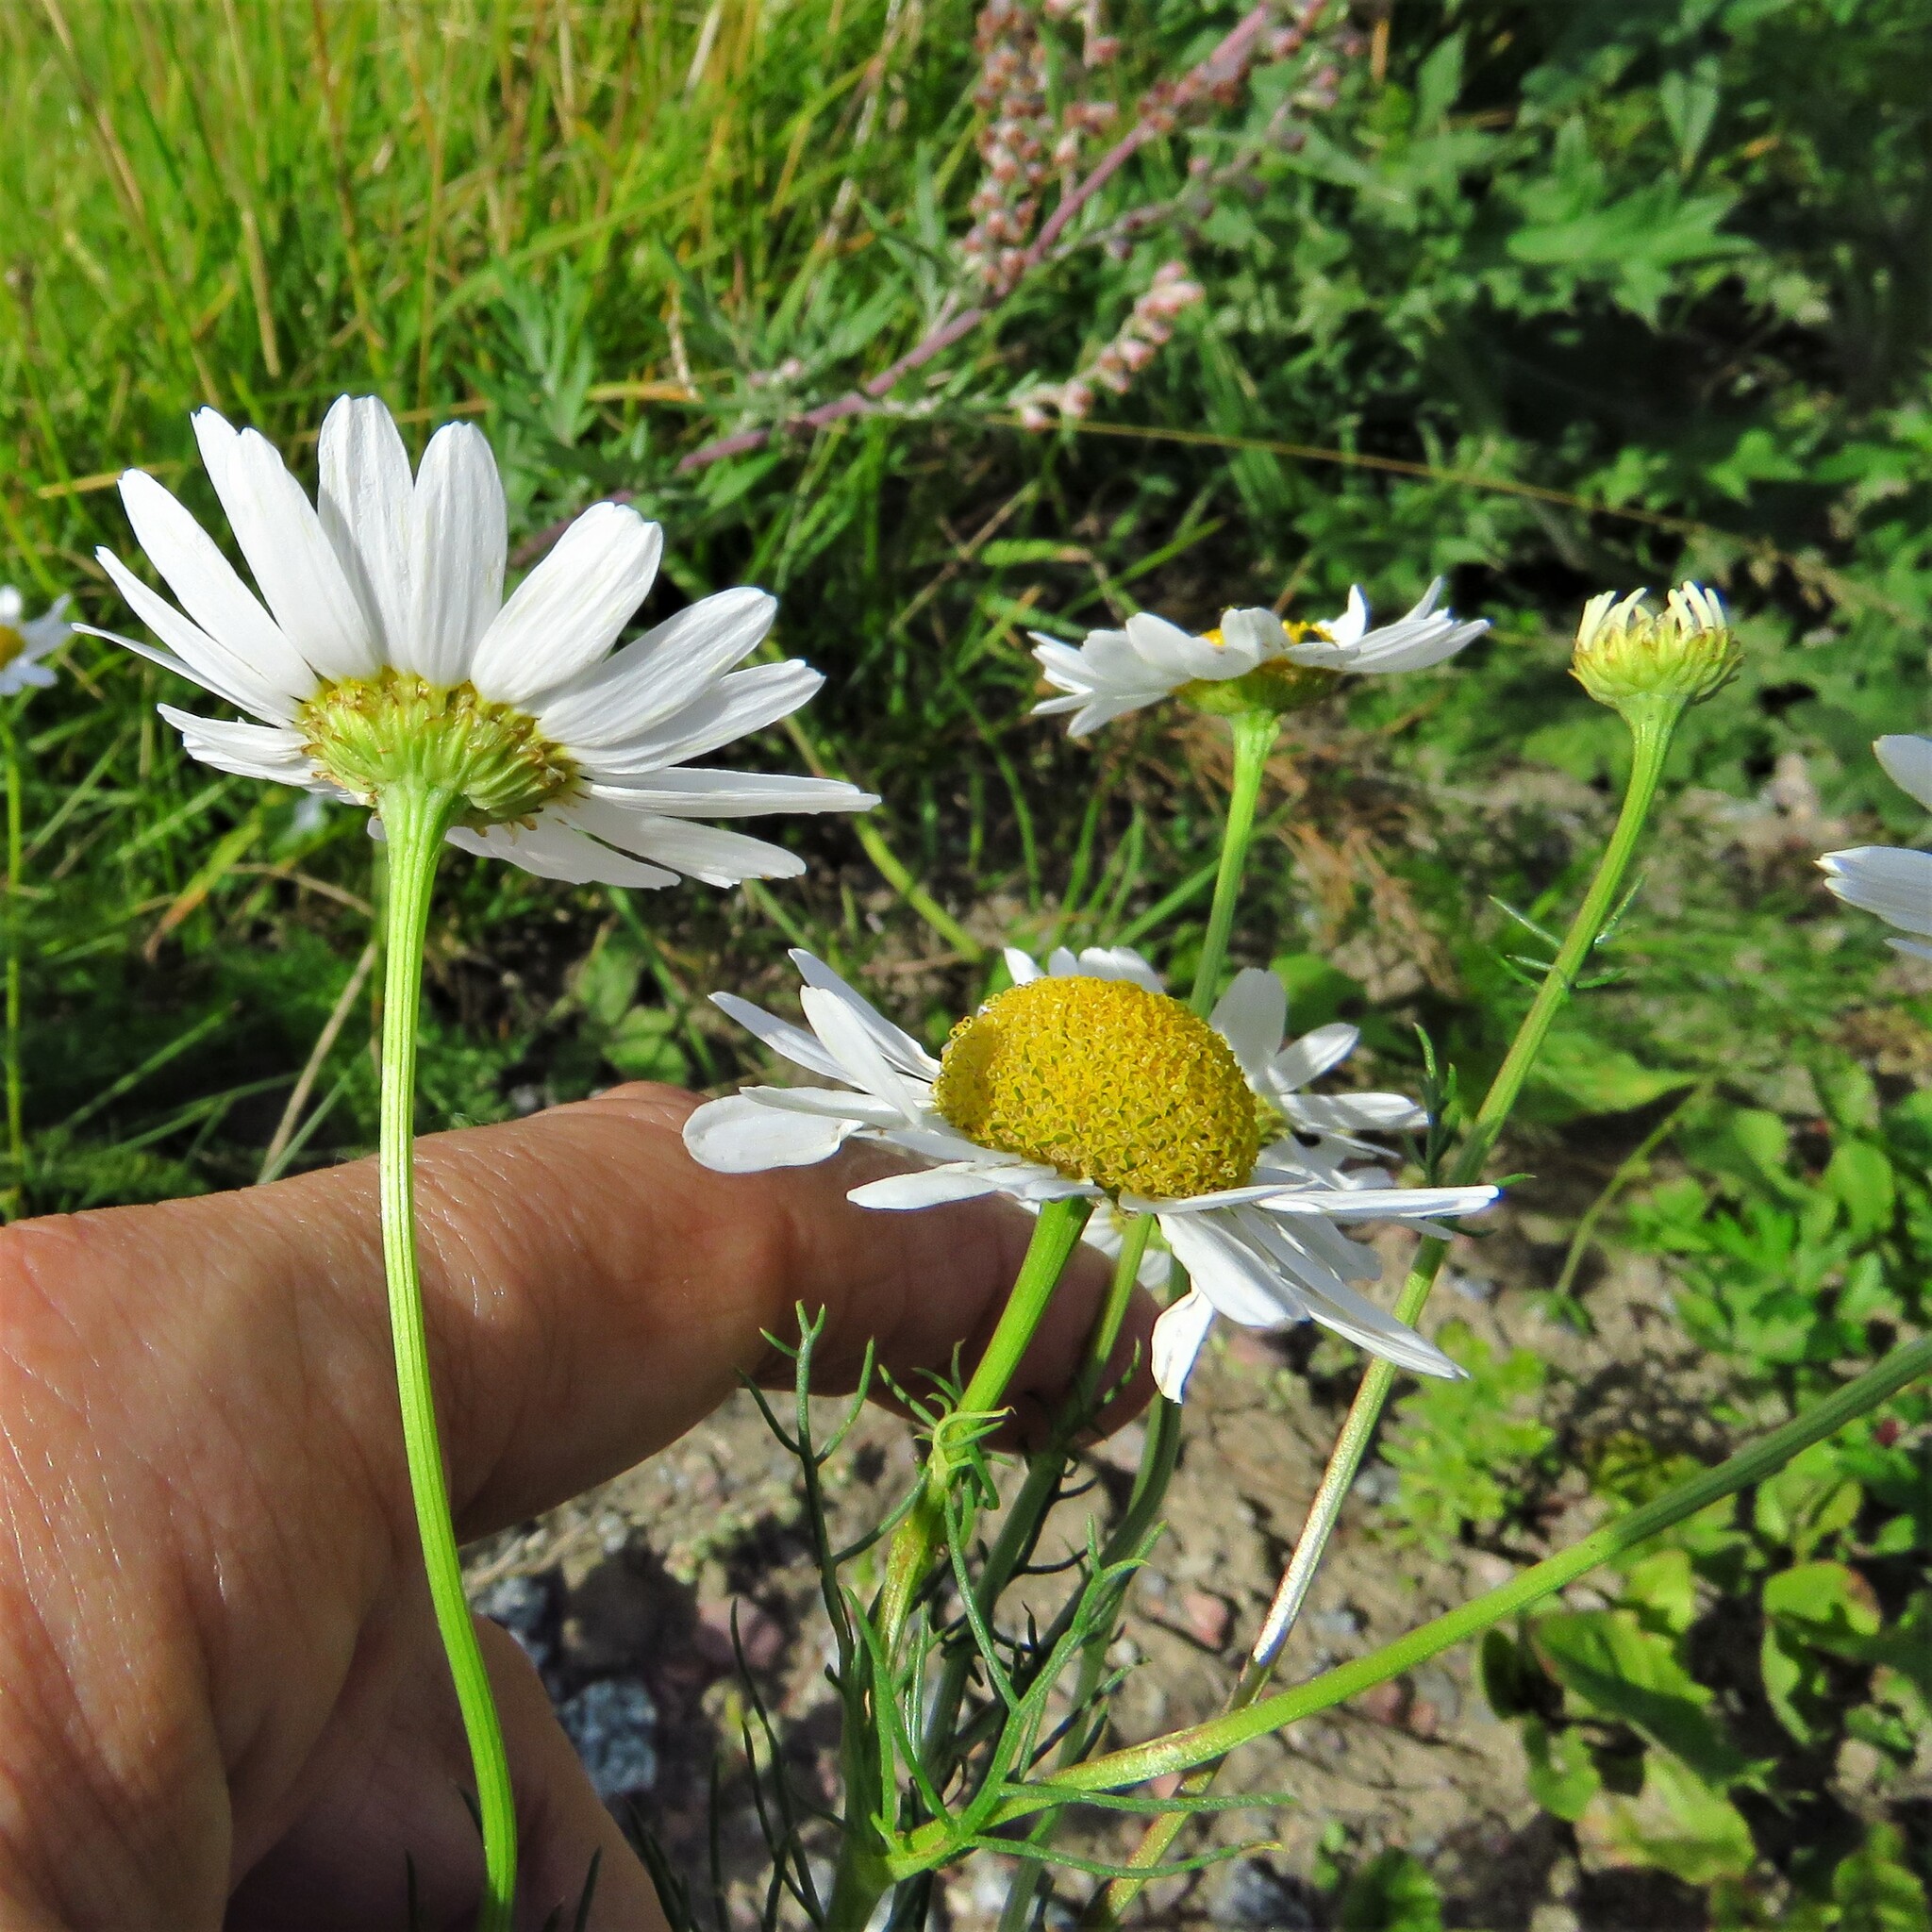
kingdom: Plantae
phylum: Tracheophyta
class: Magnoliopsida
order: Asterales
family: Asteraceae
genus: Tripleurospermum
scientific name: Tripleurospermum inodorum
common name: Scentless mayweed
